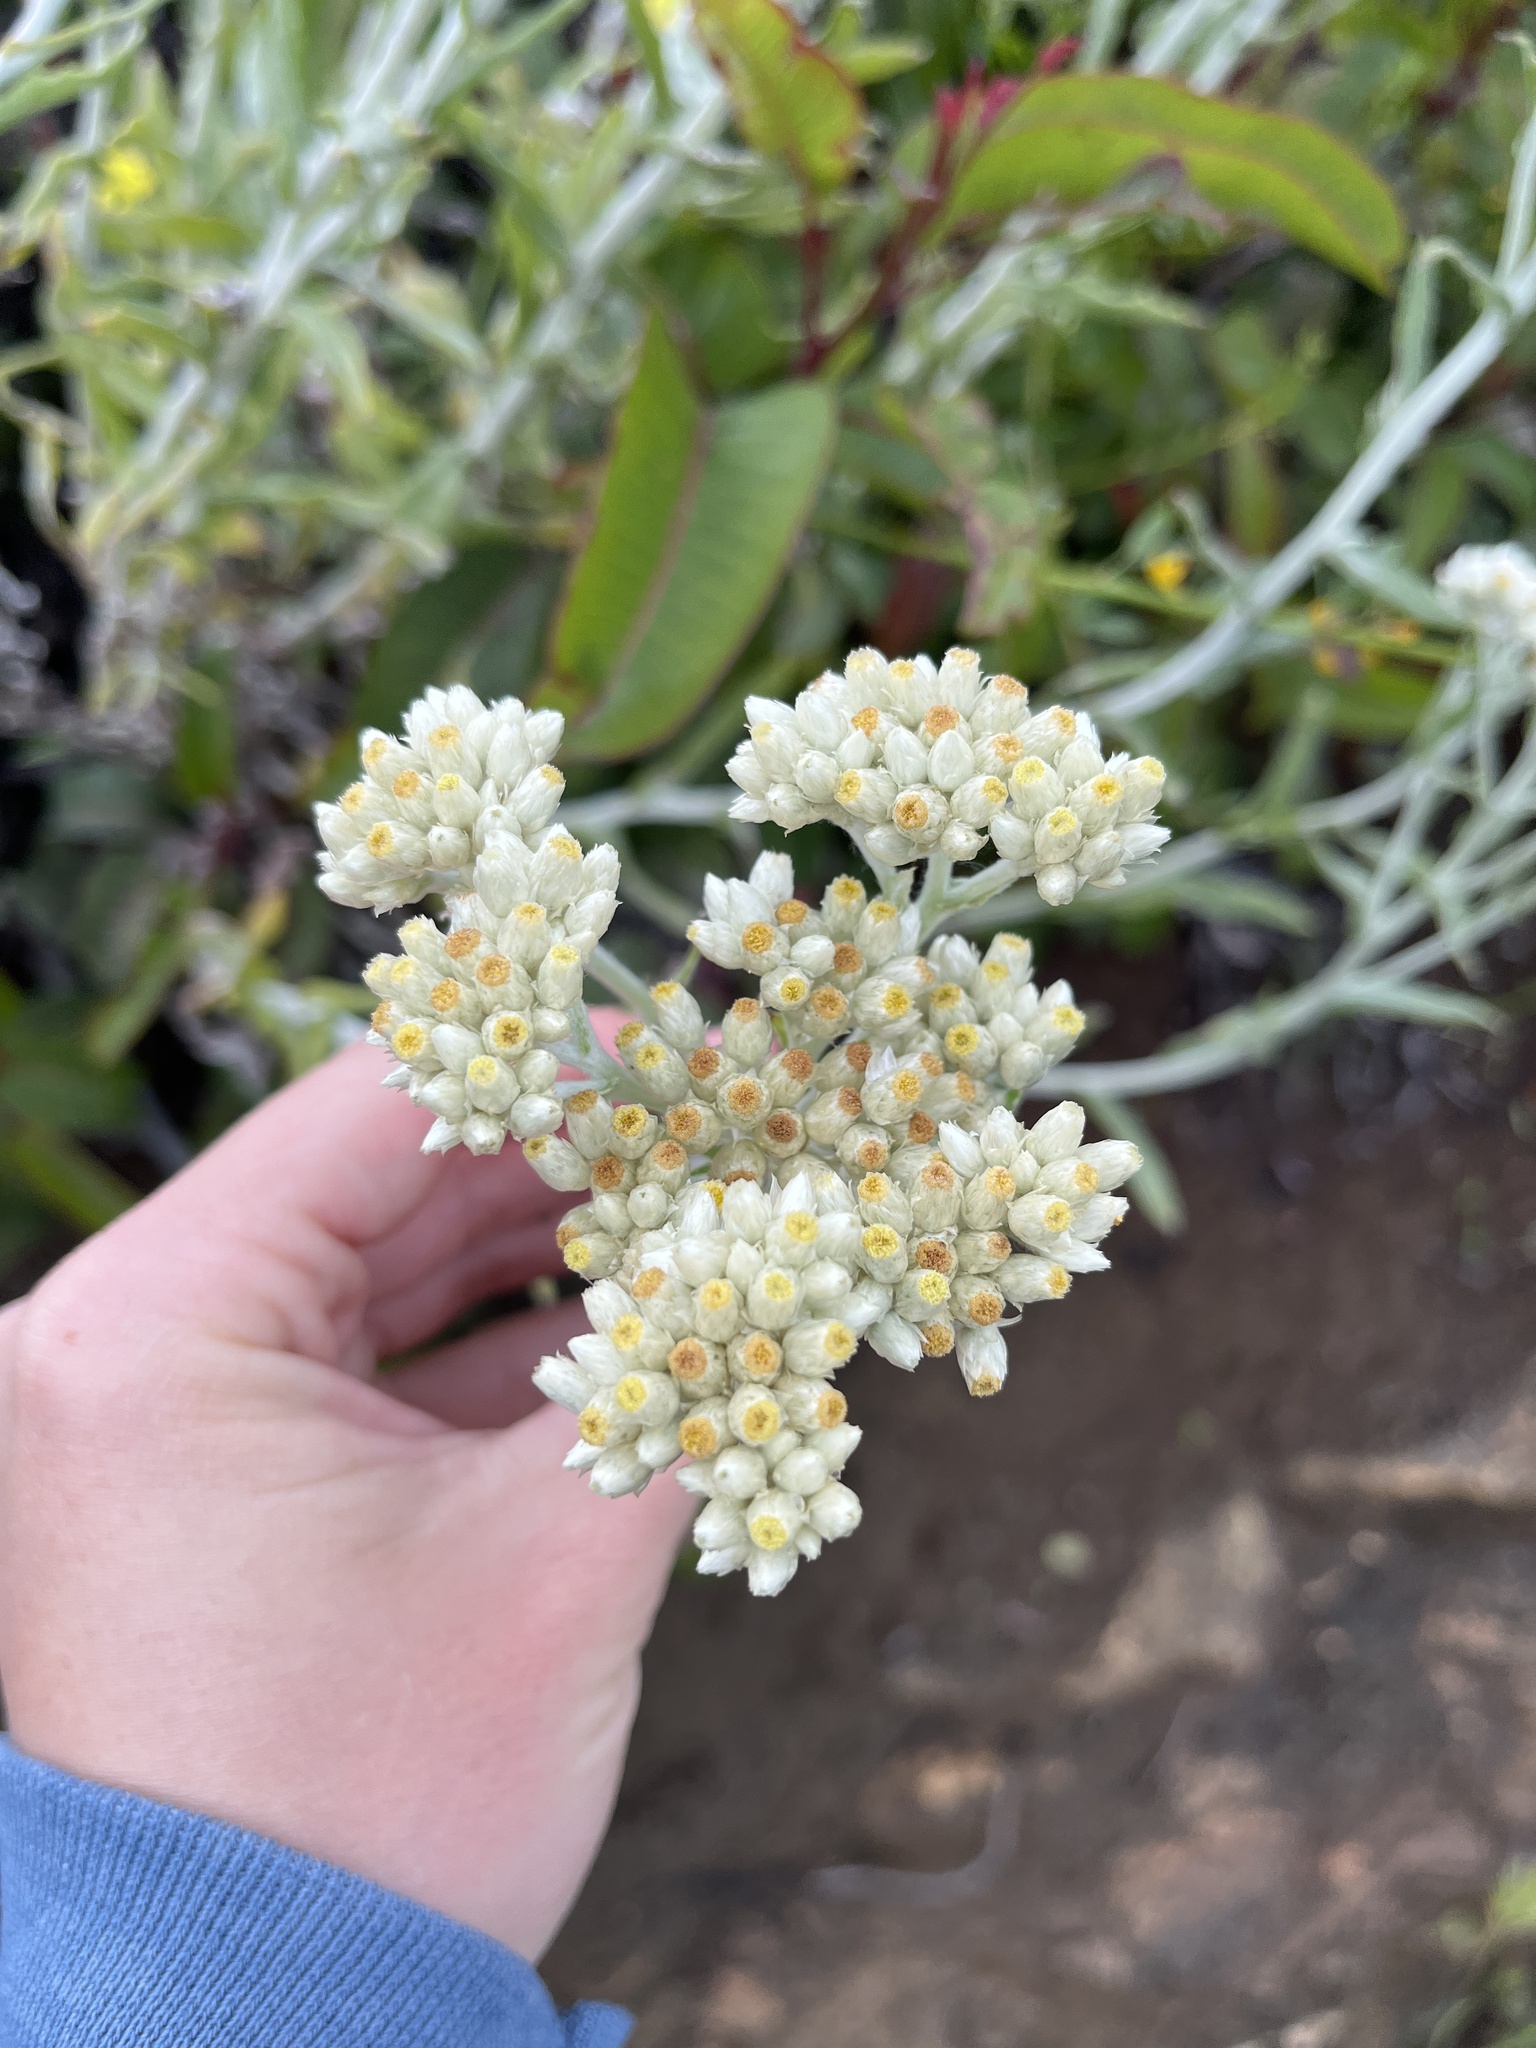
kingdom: Plantae
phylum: Tracheophyta
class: Magnoliopsida
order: Asterales
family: Asteraceae
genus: Pseudognaphalium
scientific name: Pseudognaphalium biolettii
